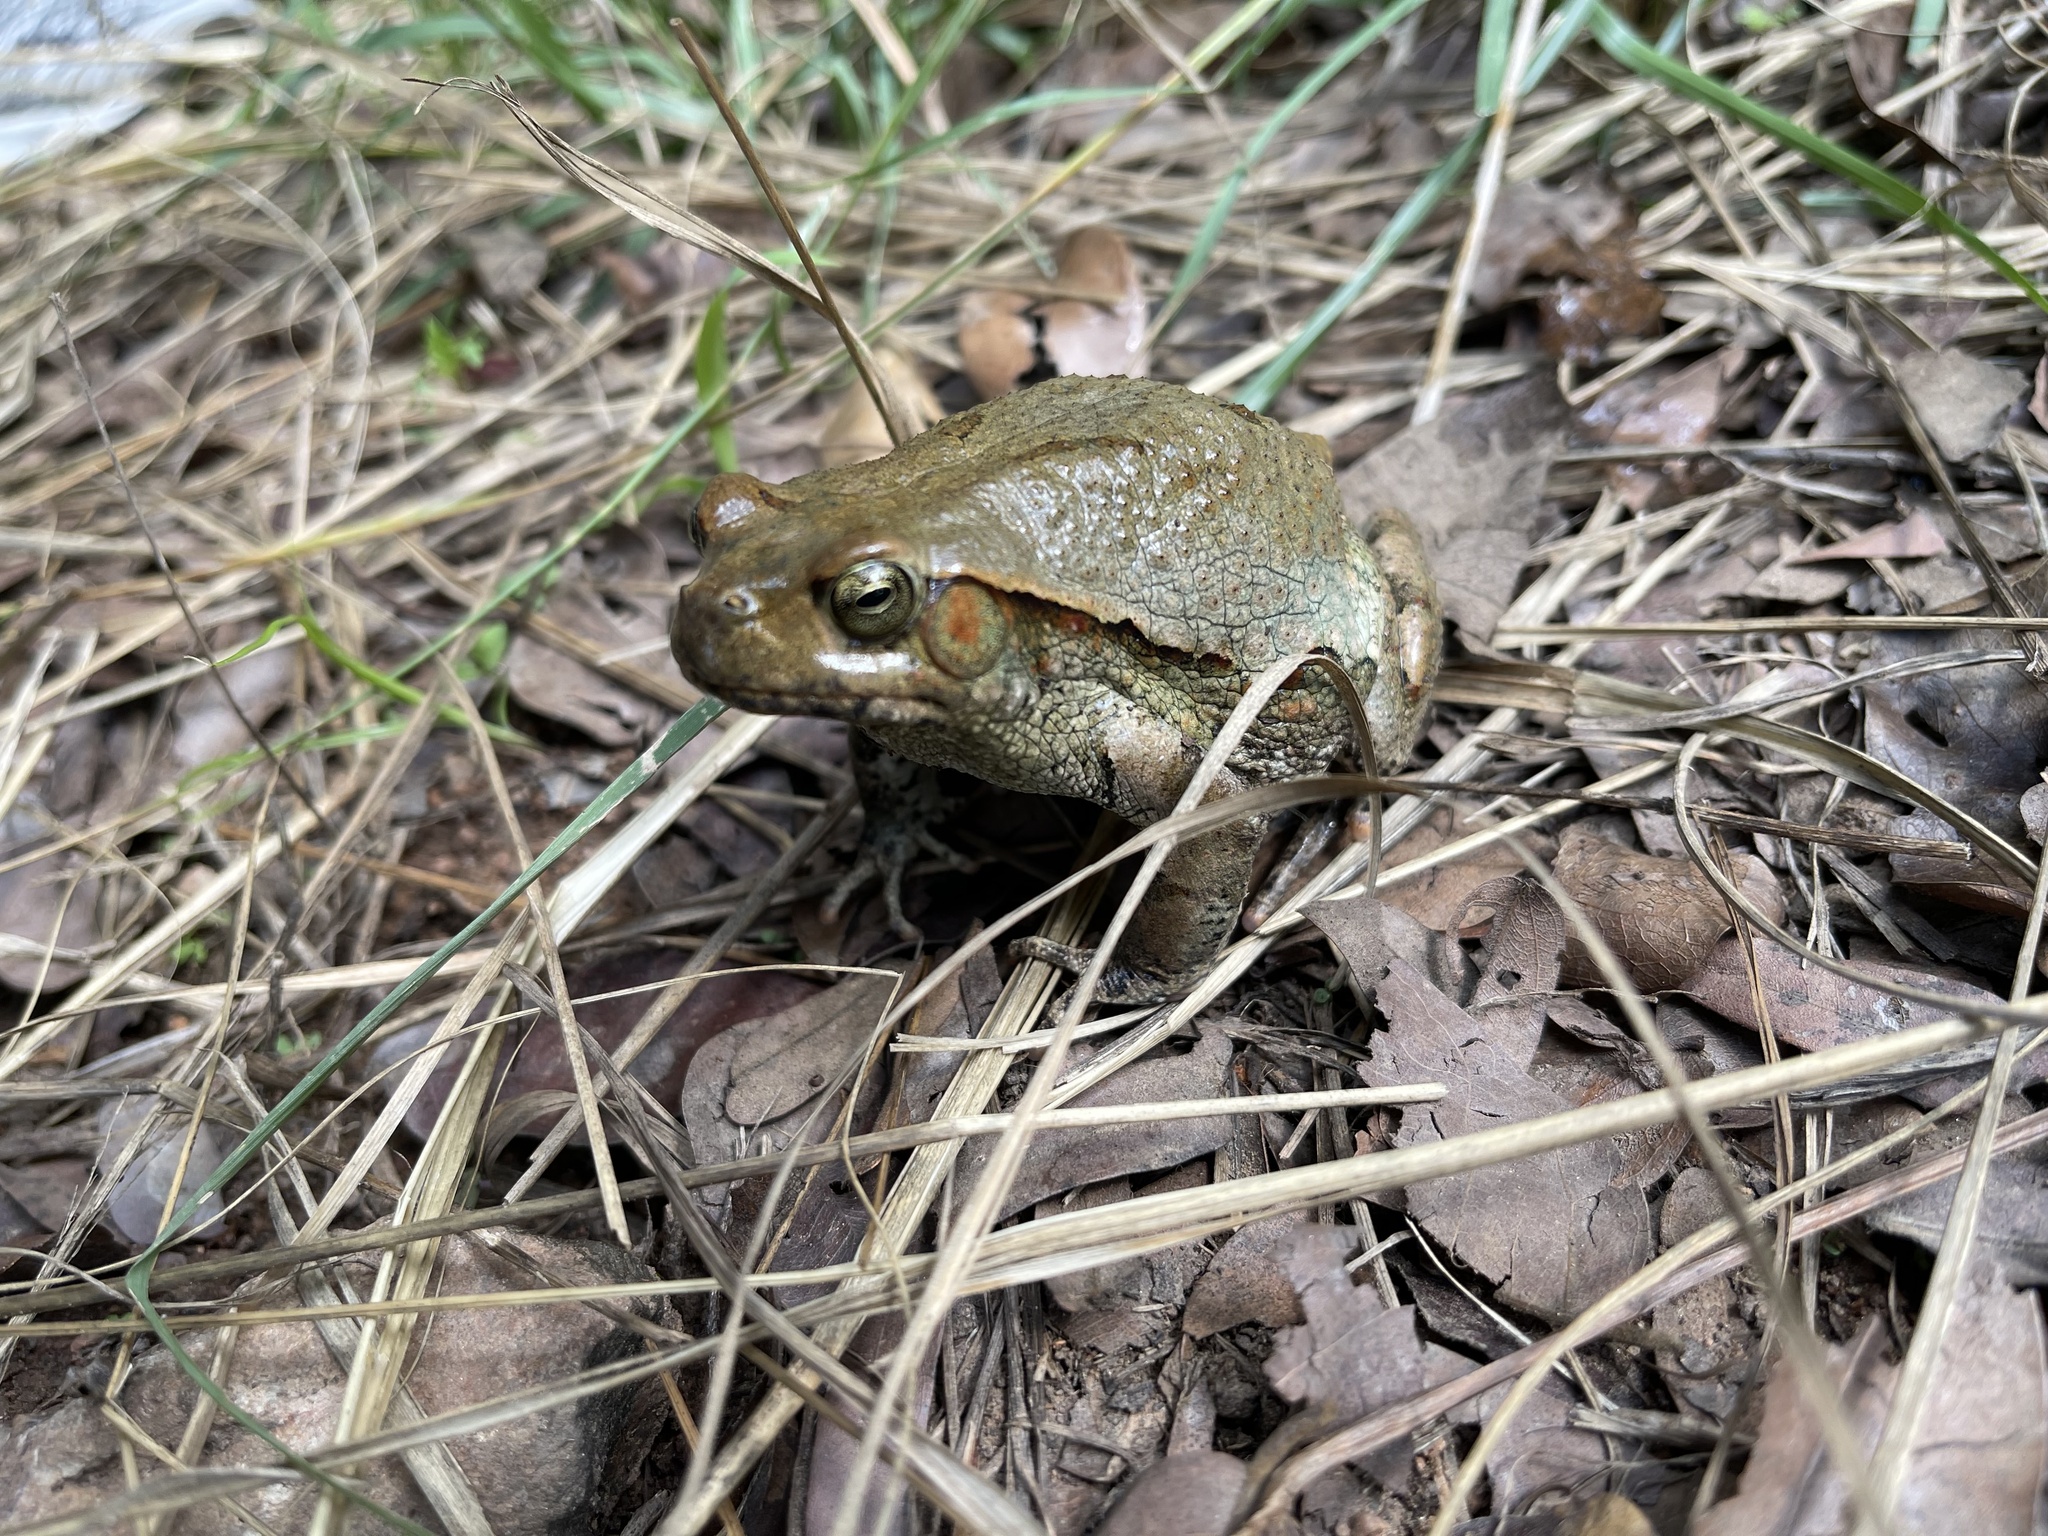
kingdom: Animalia
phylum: Chordata
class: Amphibia
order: Anura
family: Bufonidae
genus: Schismaderma
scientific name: Schismaderma carens
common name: African split-skin toad
